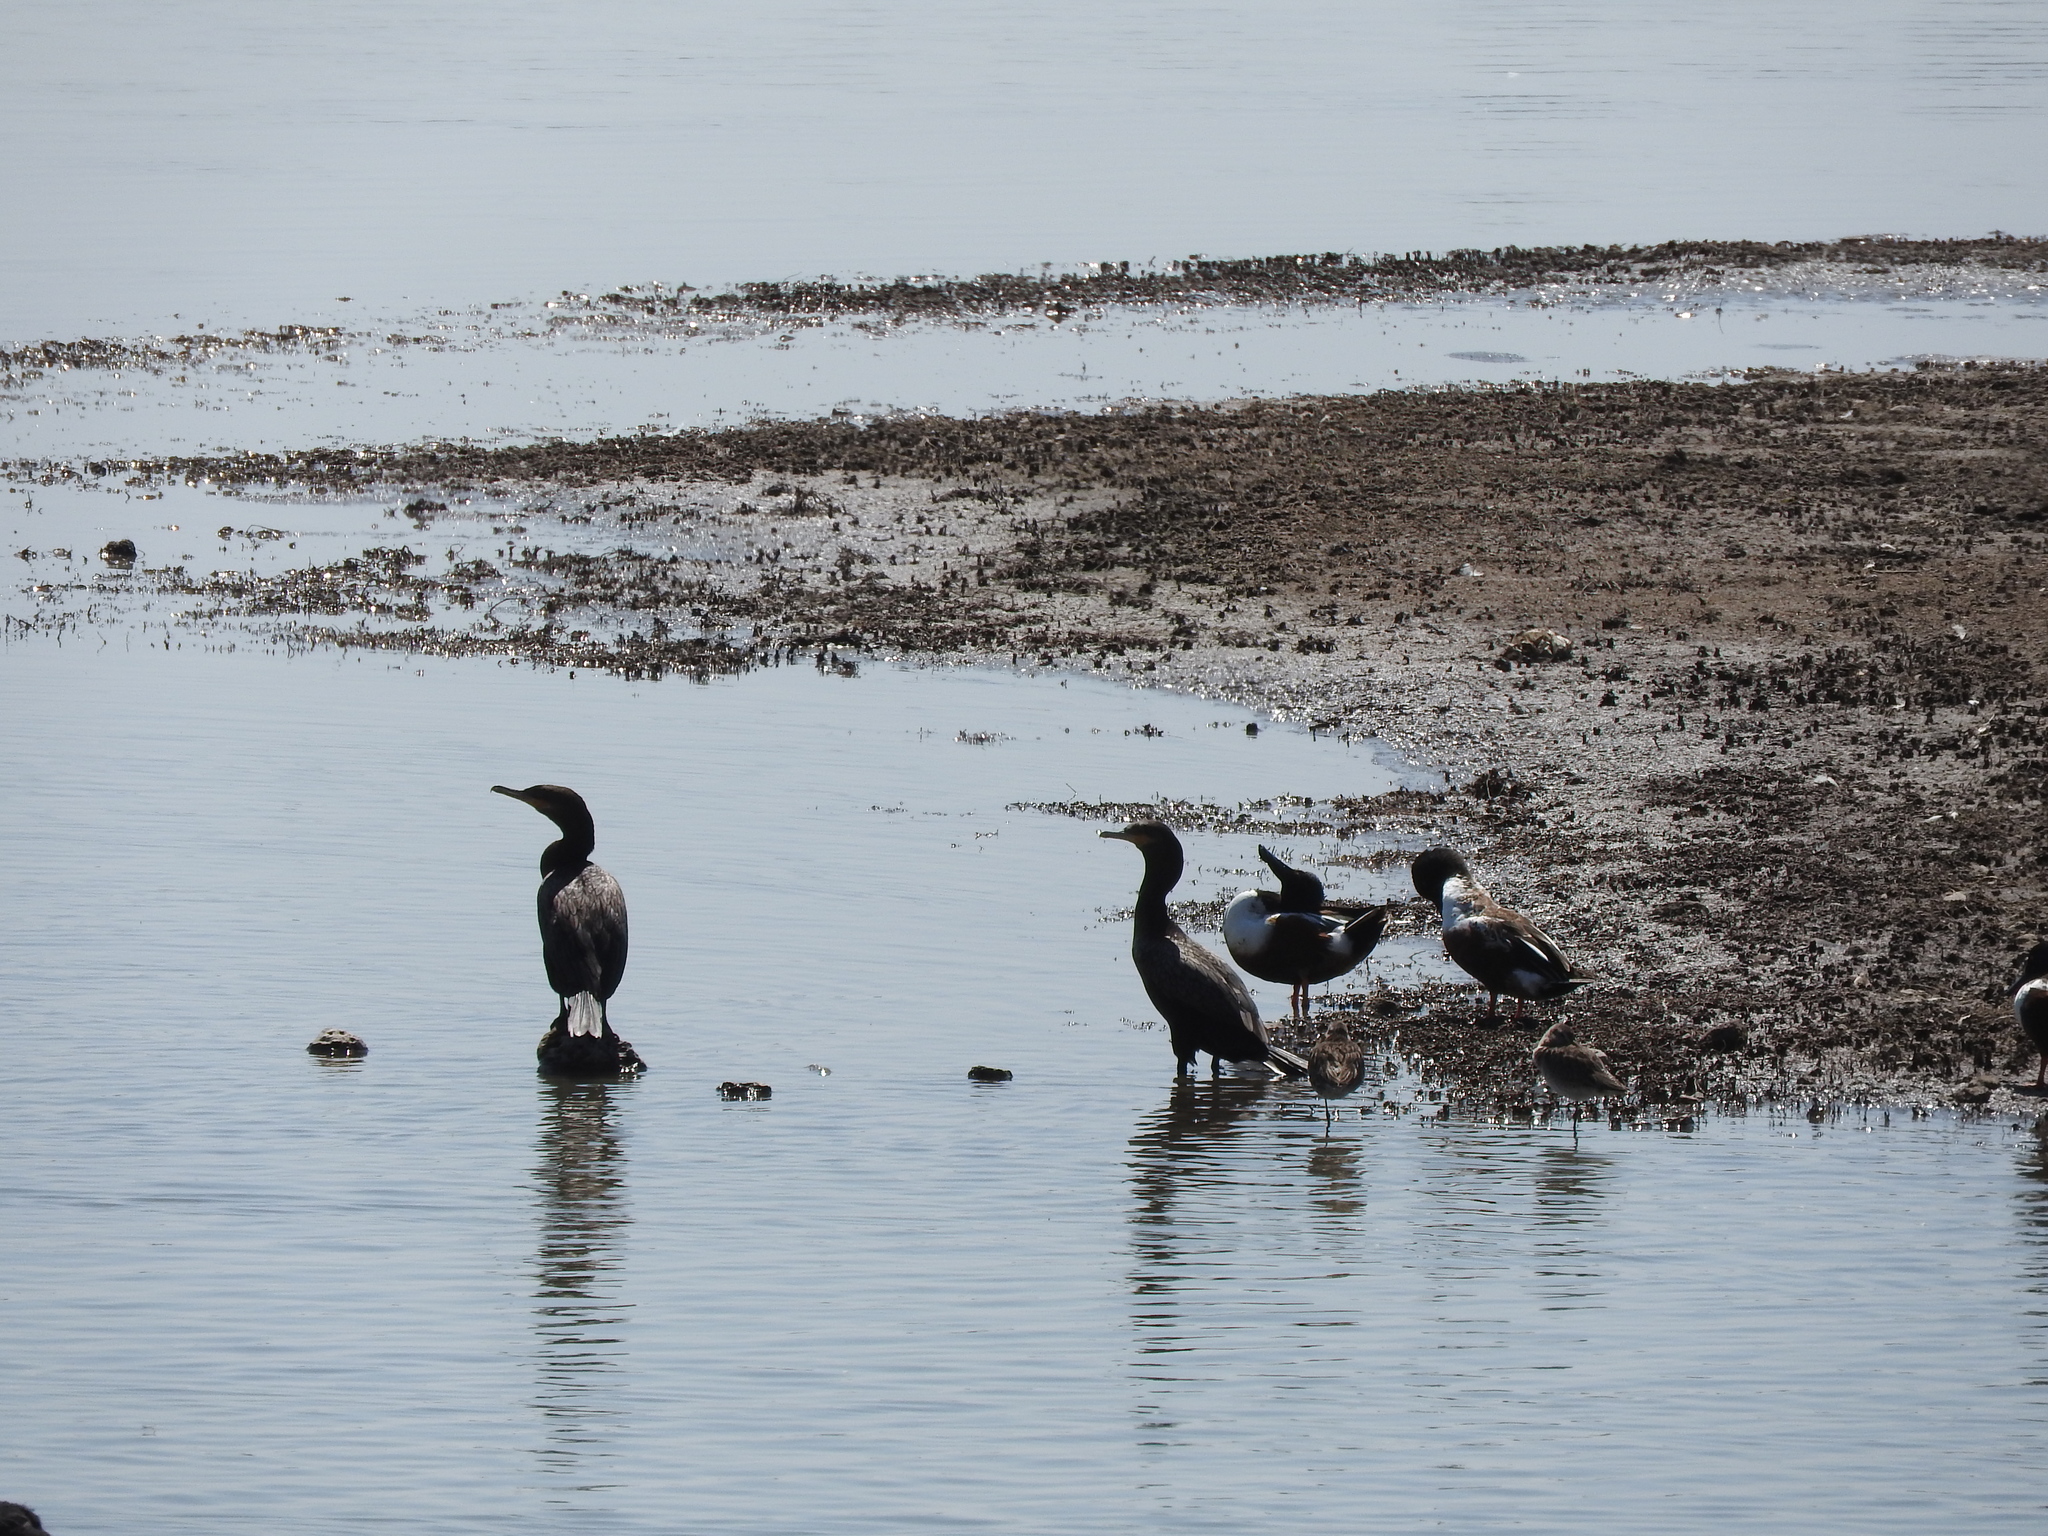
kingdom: Animalia
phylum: Chordata
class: Aves
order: Suliformes
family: Phalacrocoracidae
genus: Phalacrocorax
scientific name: Phalacrocorax brasilianus
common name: Neotropic cormorant
